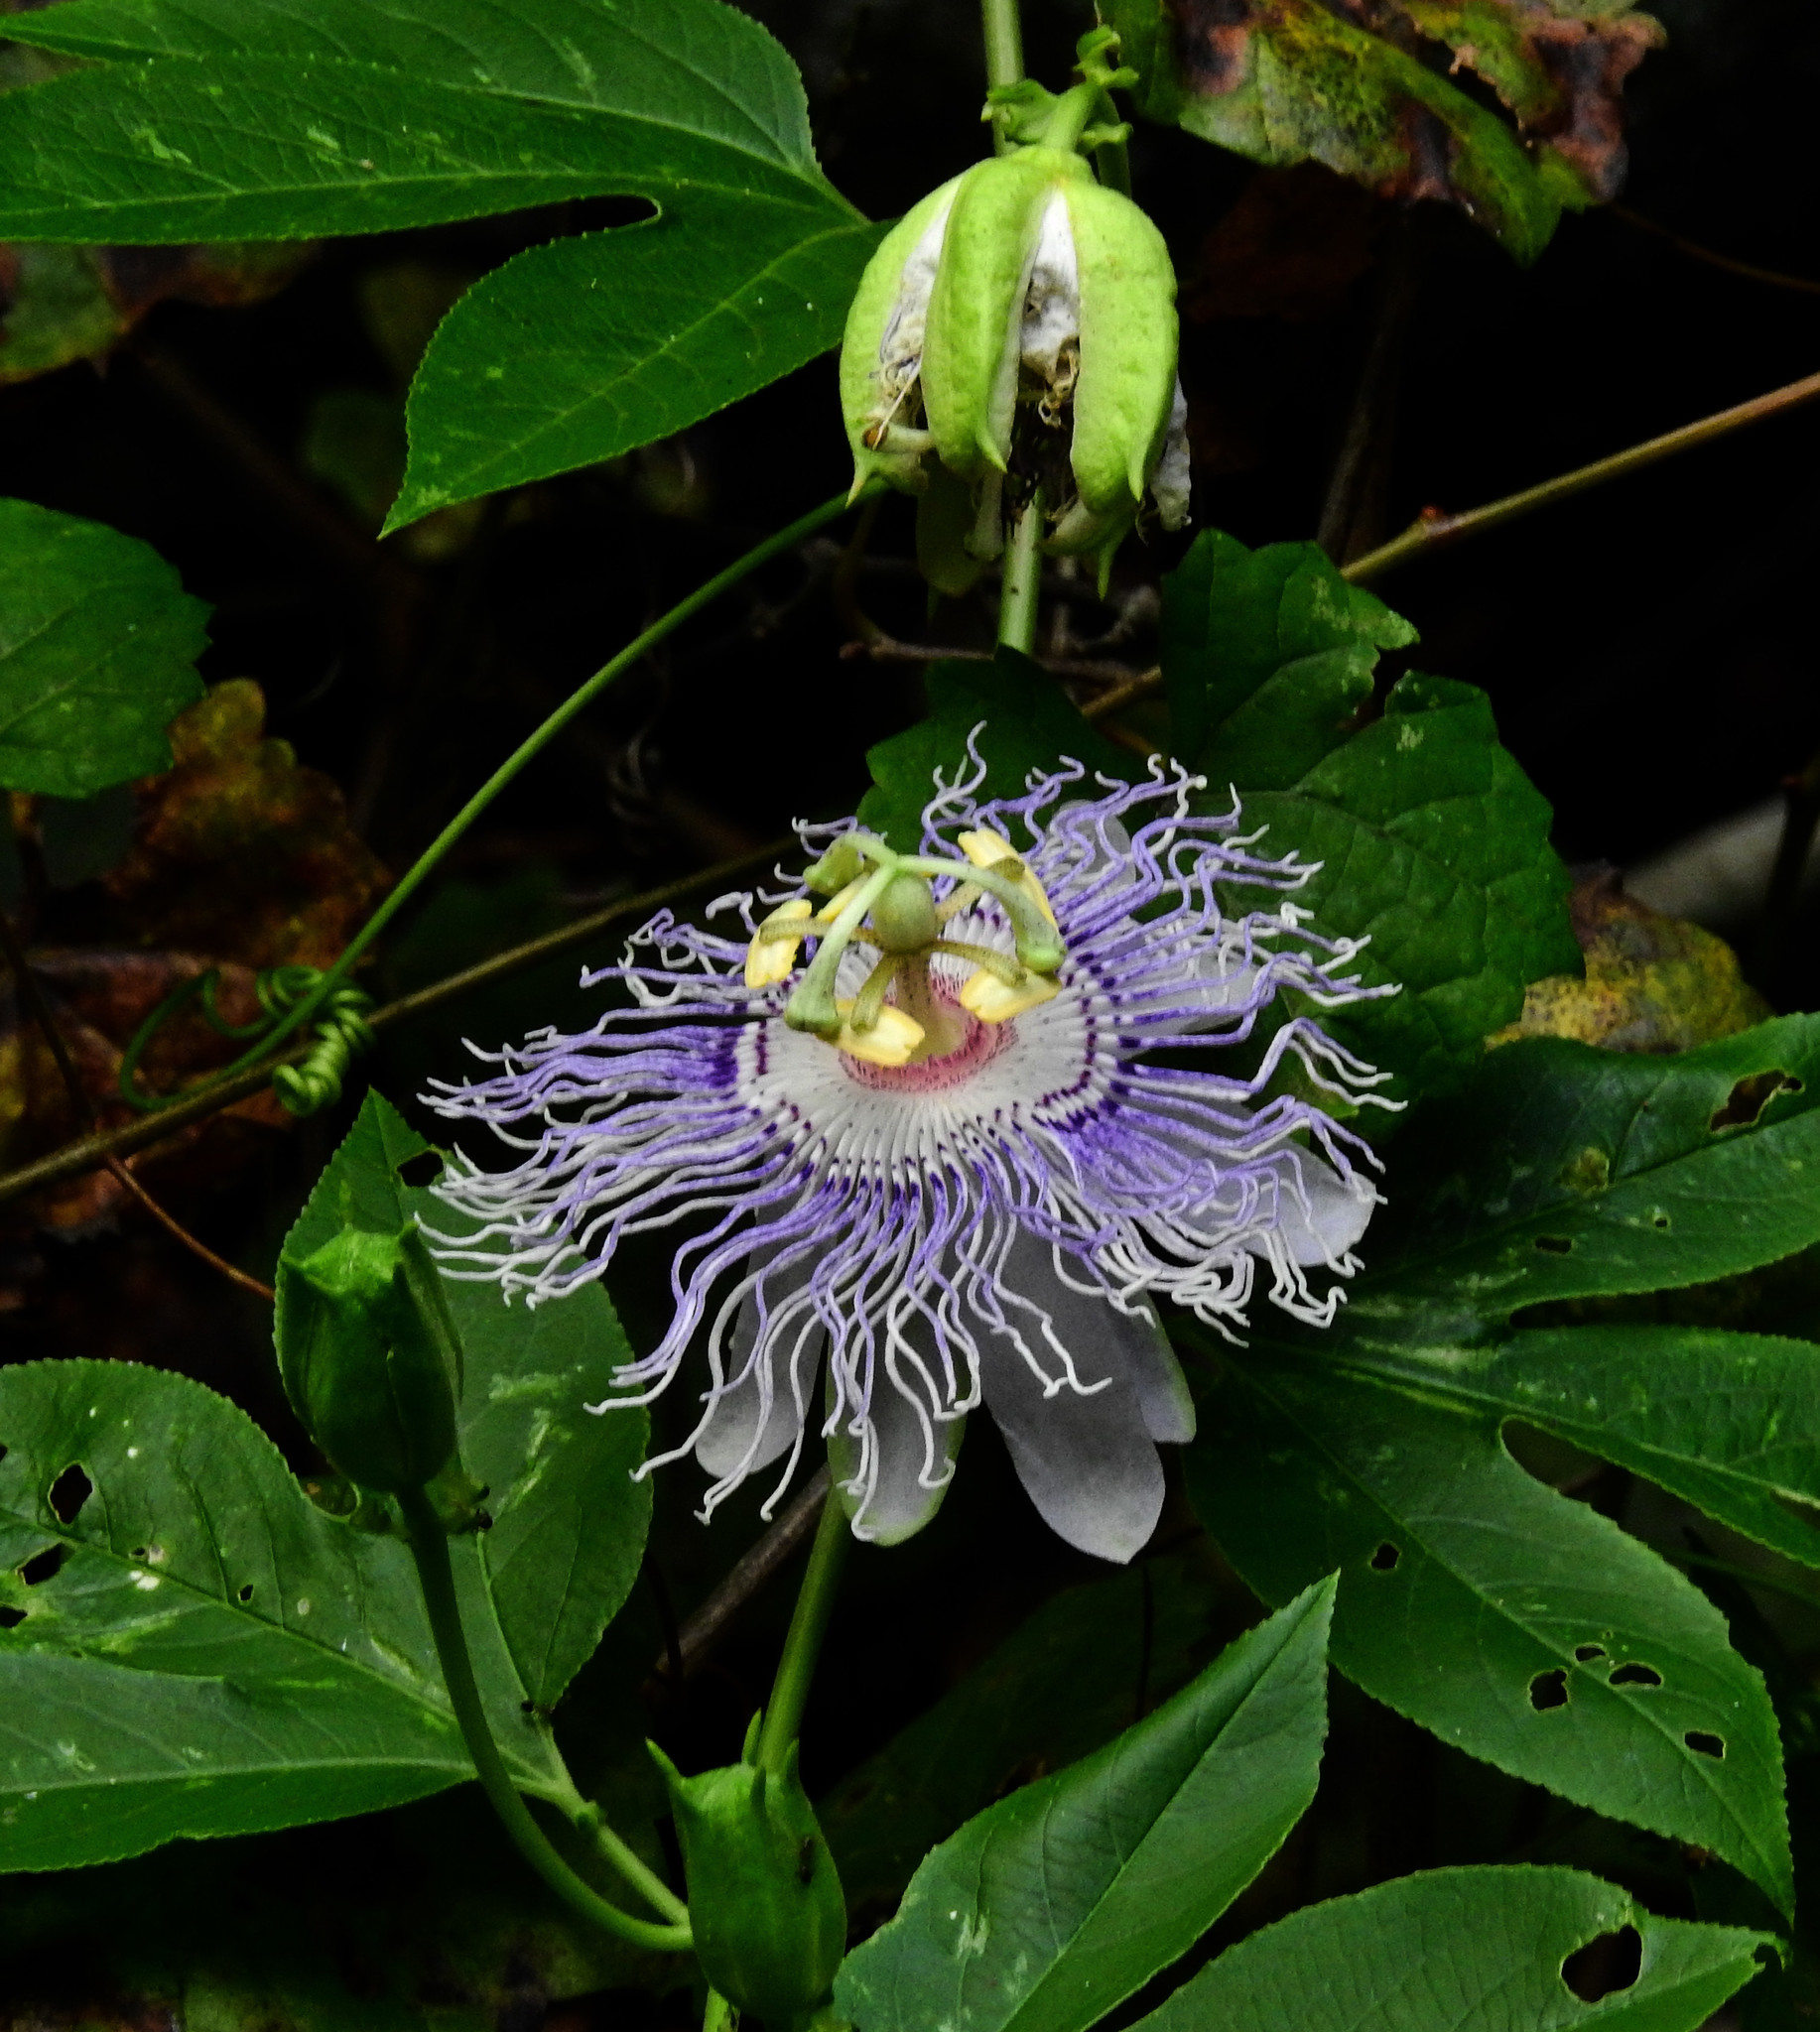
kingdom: Plantae
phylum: Tracheophyta
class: Magnoliopsida
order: Malpighiales
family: Passifloraceae
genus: Passiflora
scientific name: Passiflora incarnata
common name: Apricot-vine
